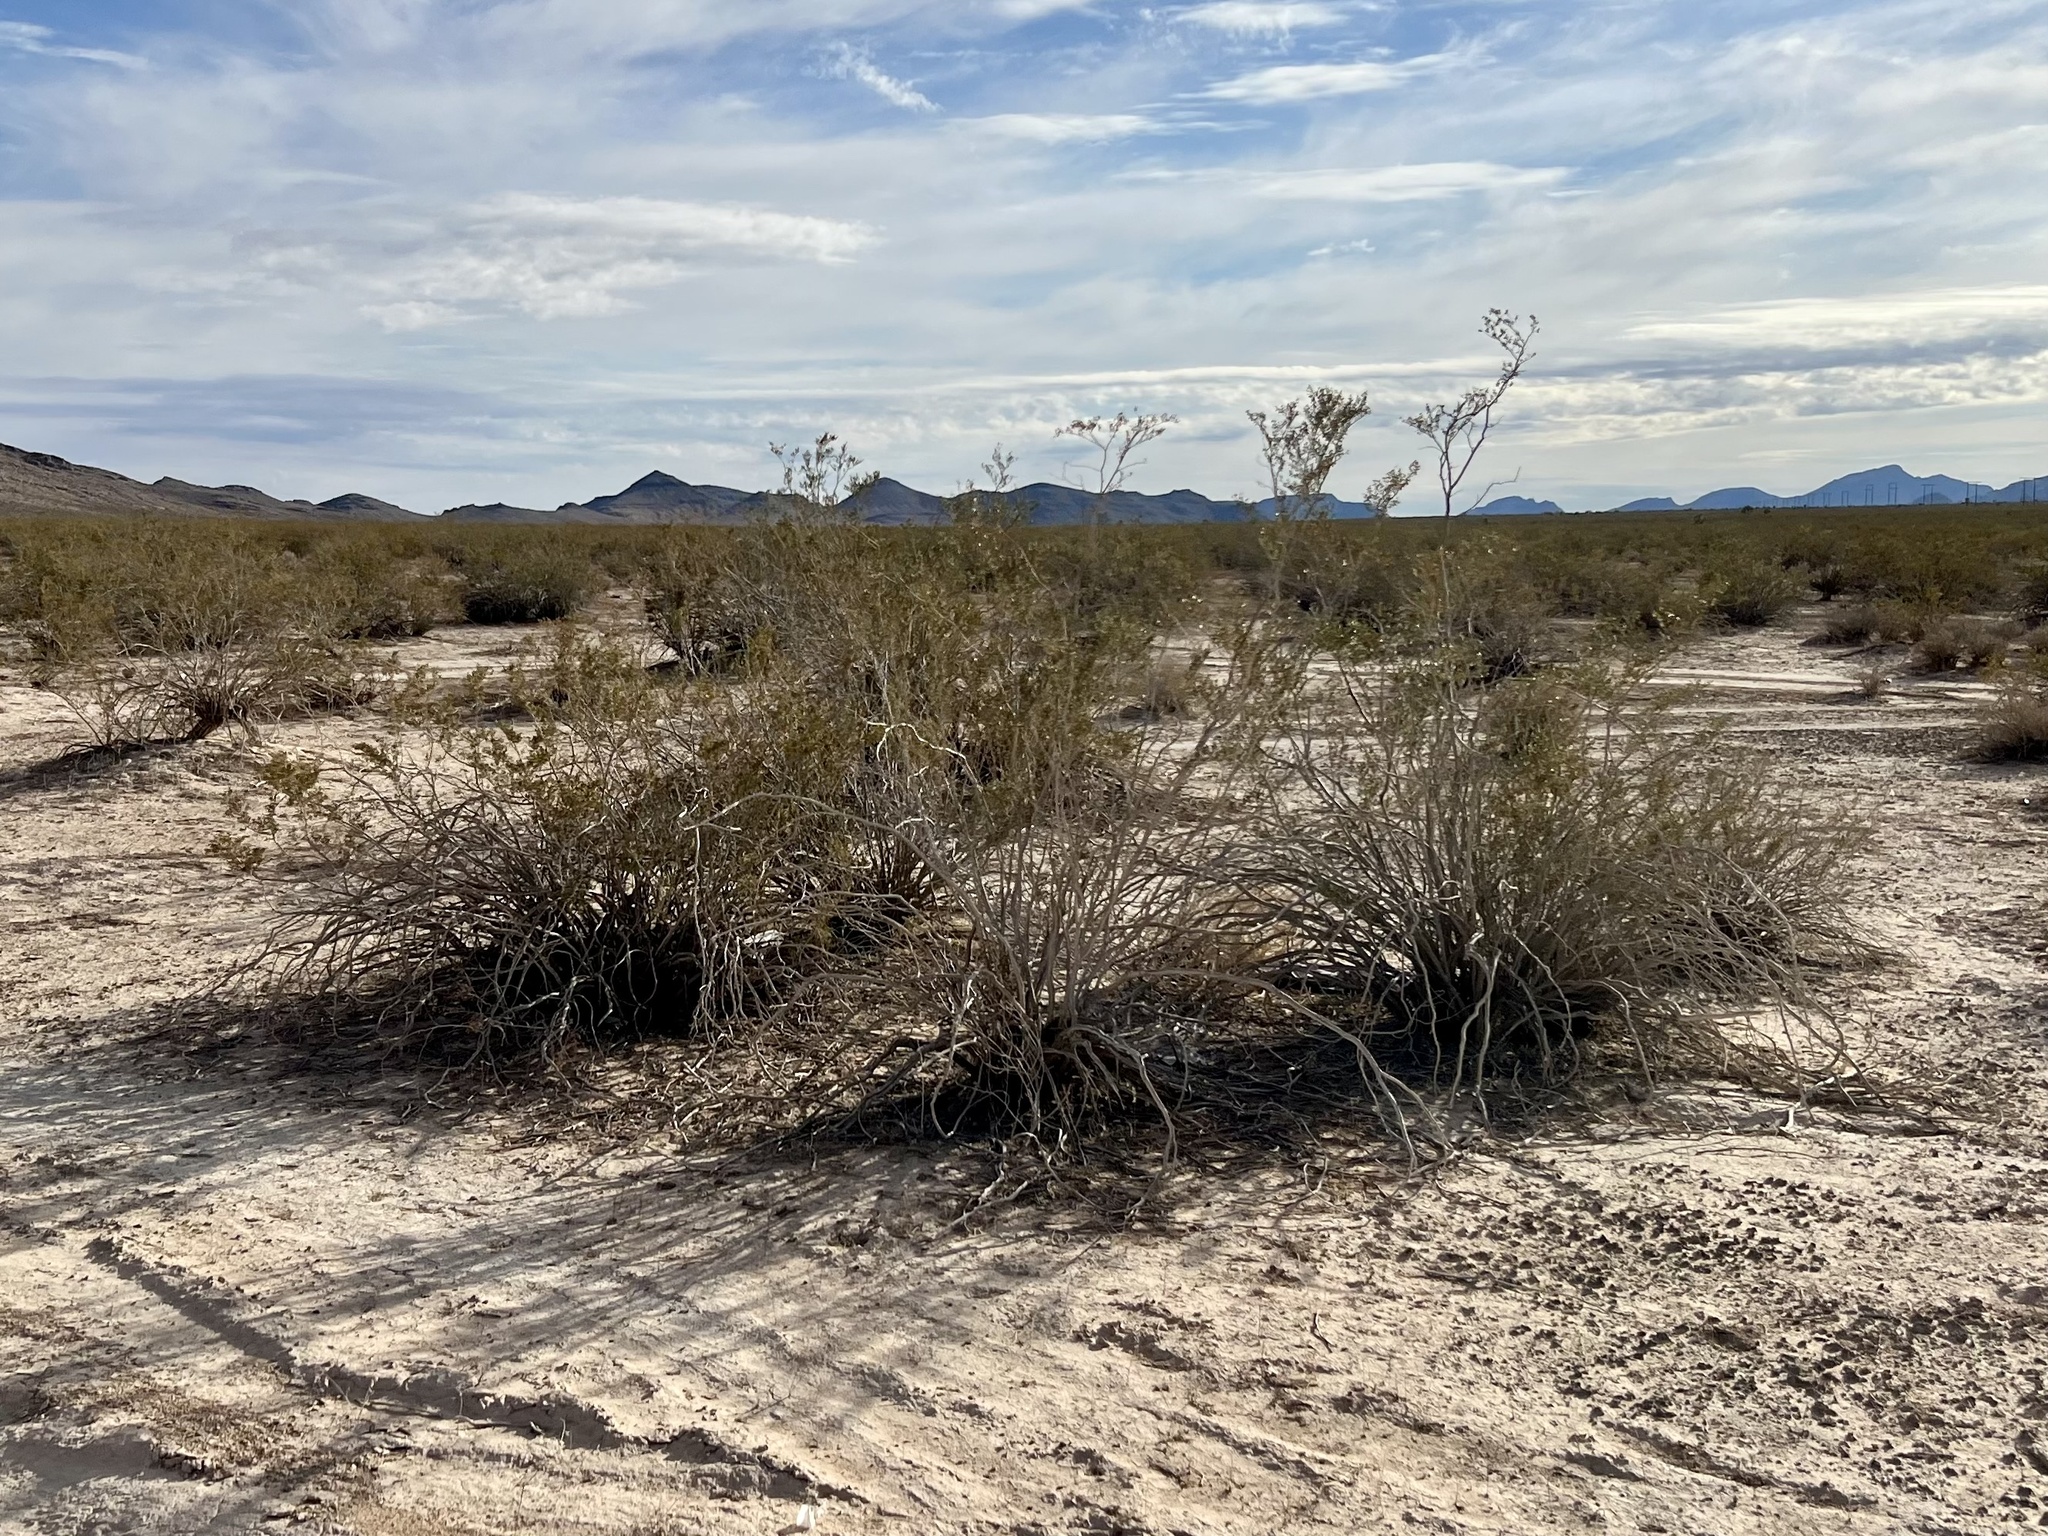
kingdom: Plantae
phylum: Tracheophyta
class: Magnoliopsida
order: Zygophyllales
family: Zygophyllaceae
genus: Larrea
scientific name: Larrea tridentata
